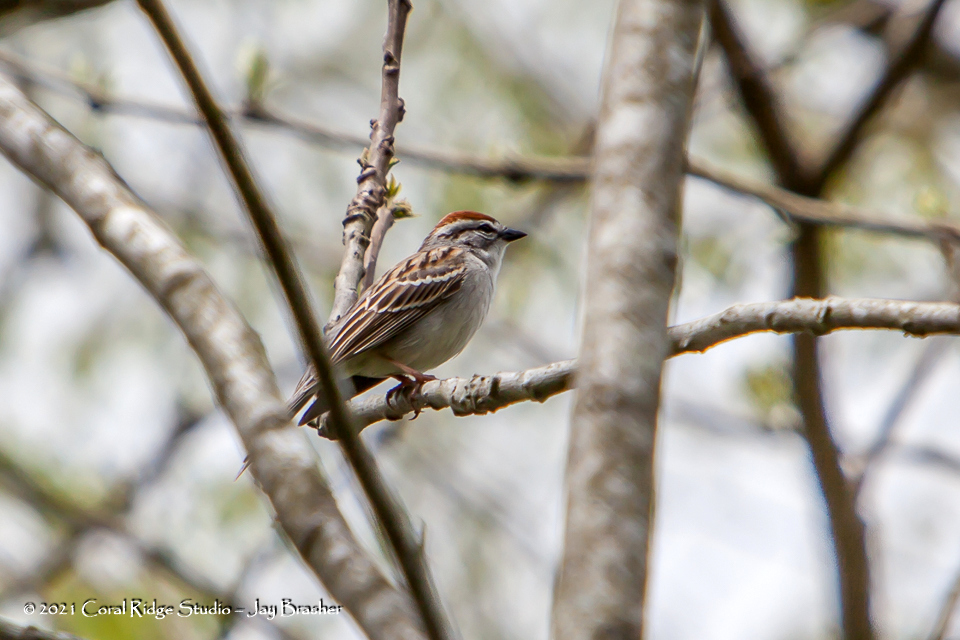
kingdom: Animalia
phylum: Chordata
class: Aves
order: Passeriformes
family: Passerellidae
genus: Spizella
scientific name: Spizella passerina
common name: Chipping sparrow
